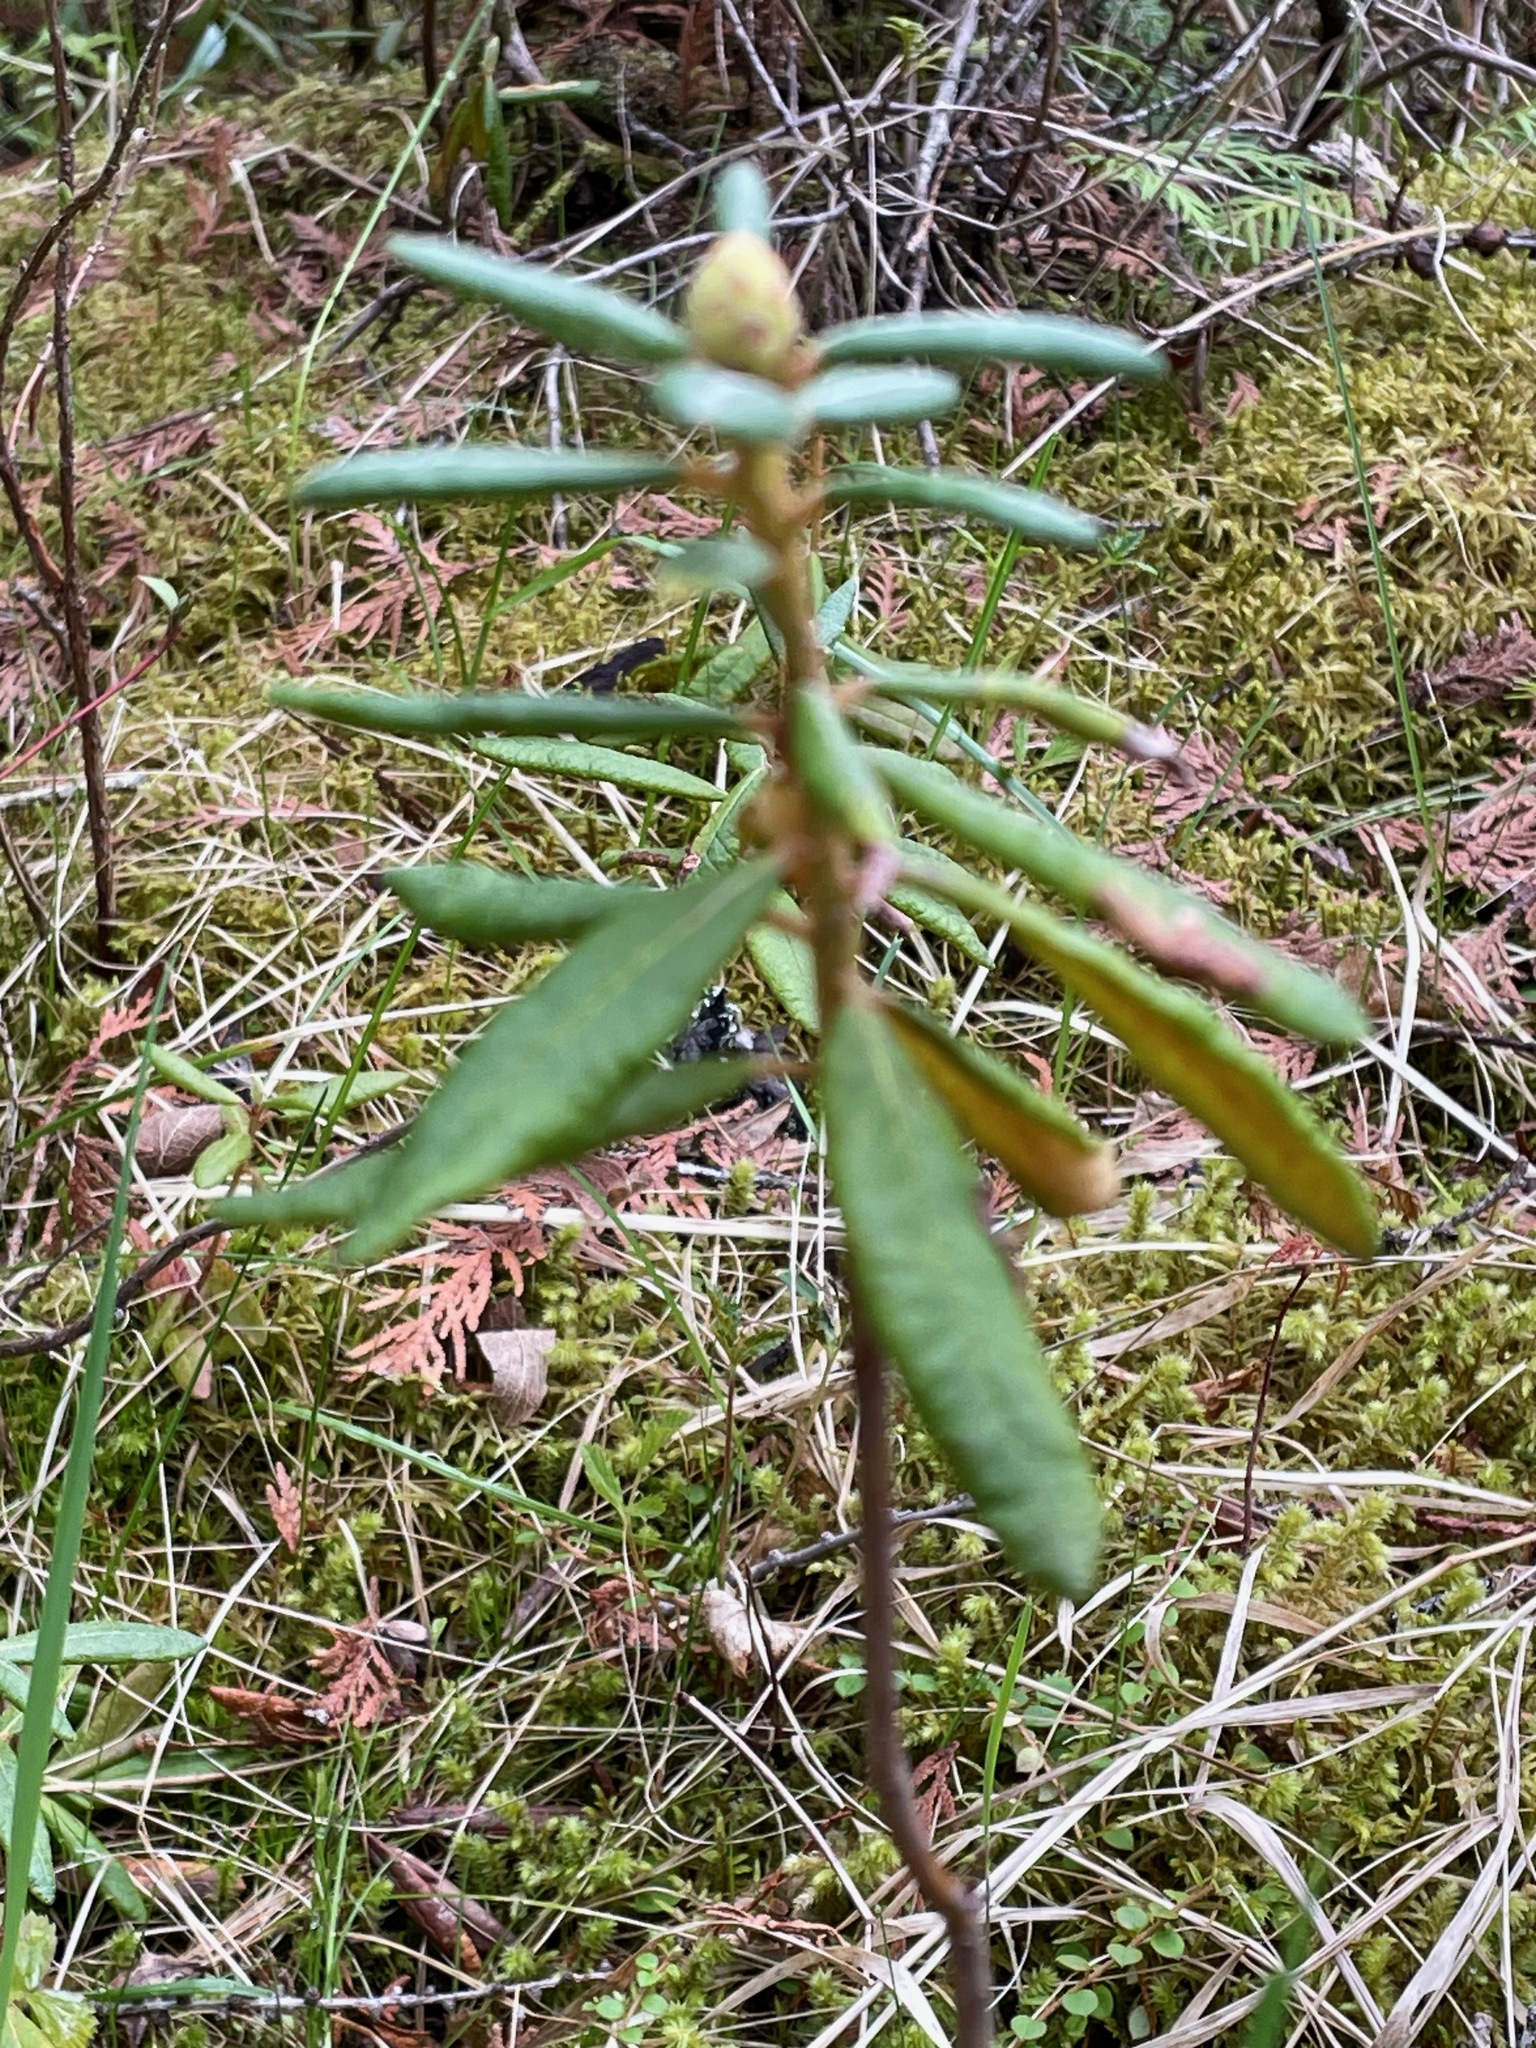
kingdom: Plantae
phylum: Tracheophyta
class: Magnoliopsida
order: Ericales
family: Ericaceae
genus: Rhododendron
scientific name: Rhododendron groenlandicum
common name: Bog labrador tea
